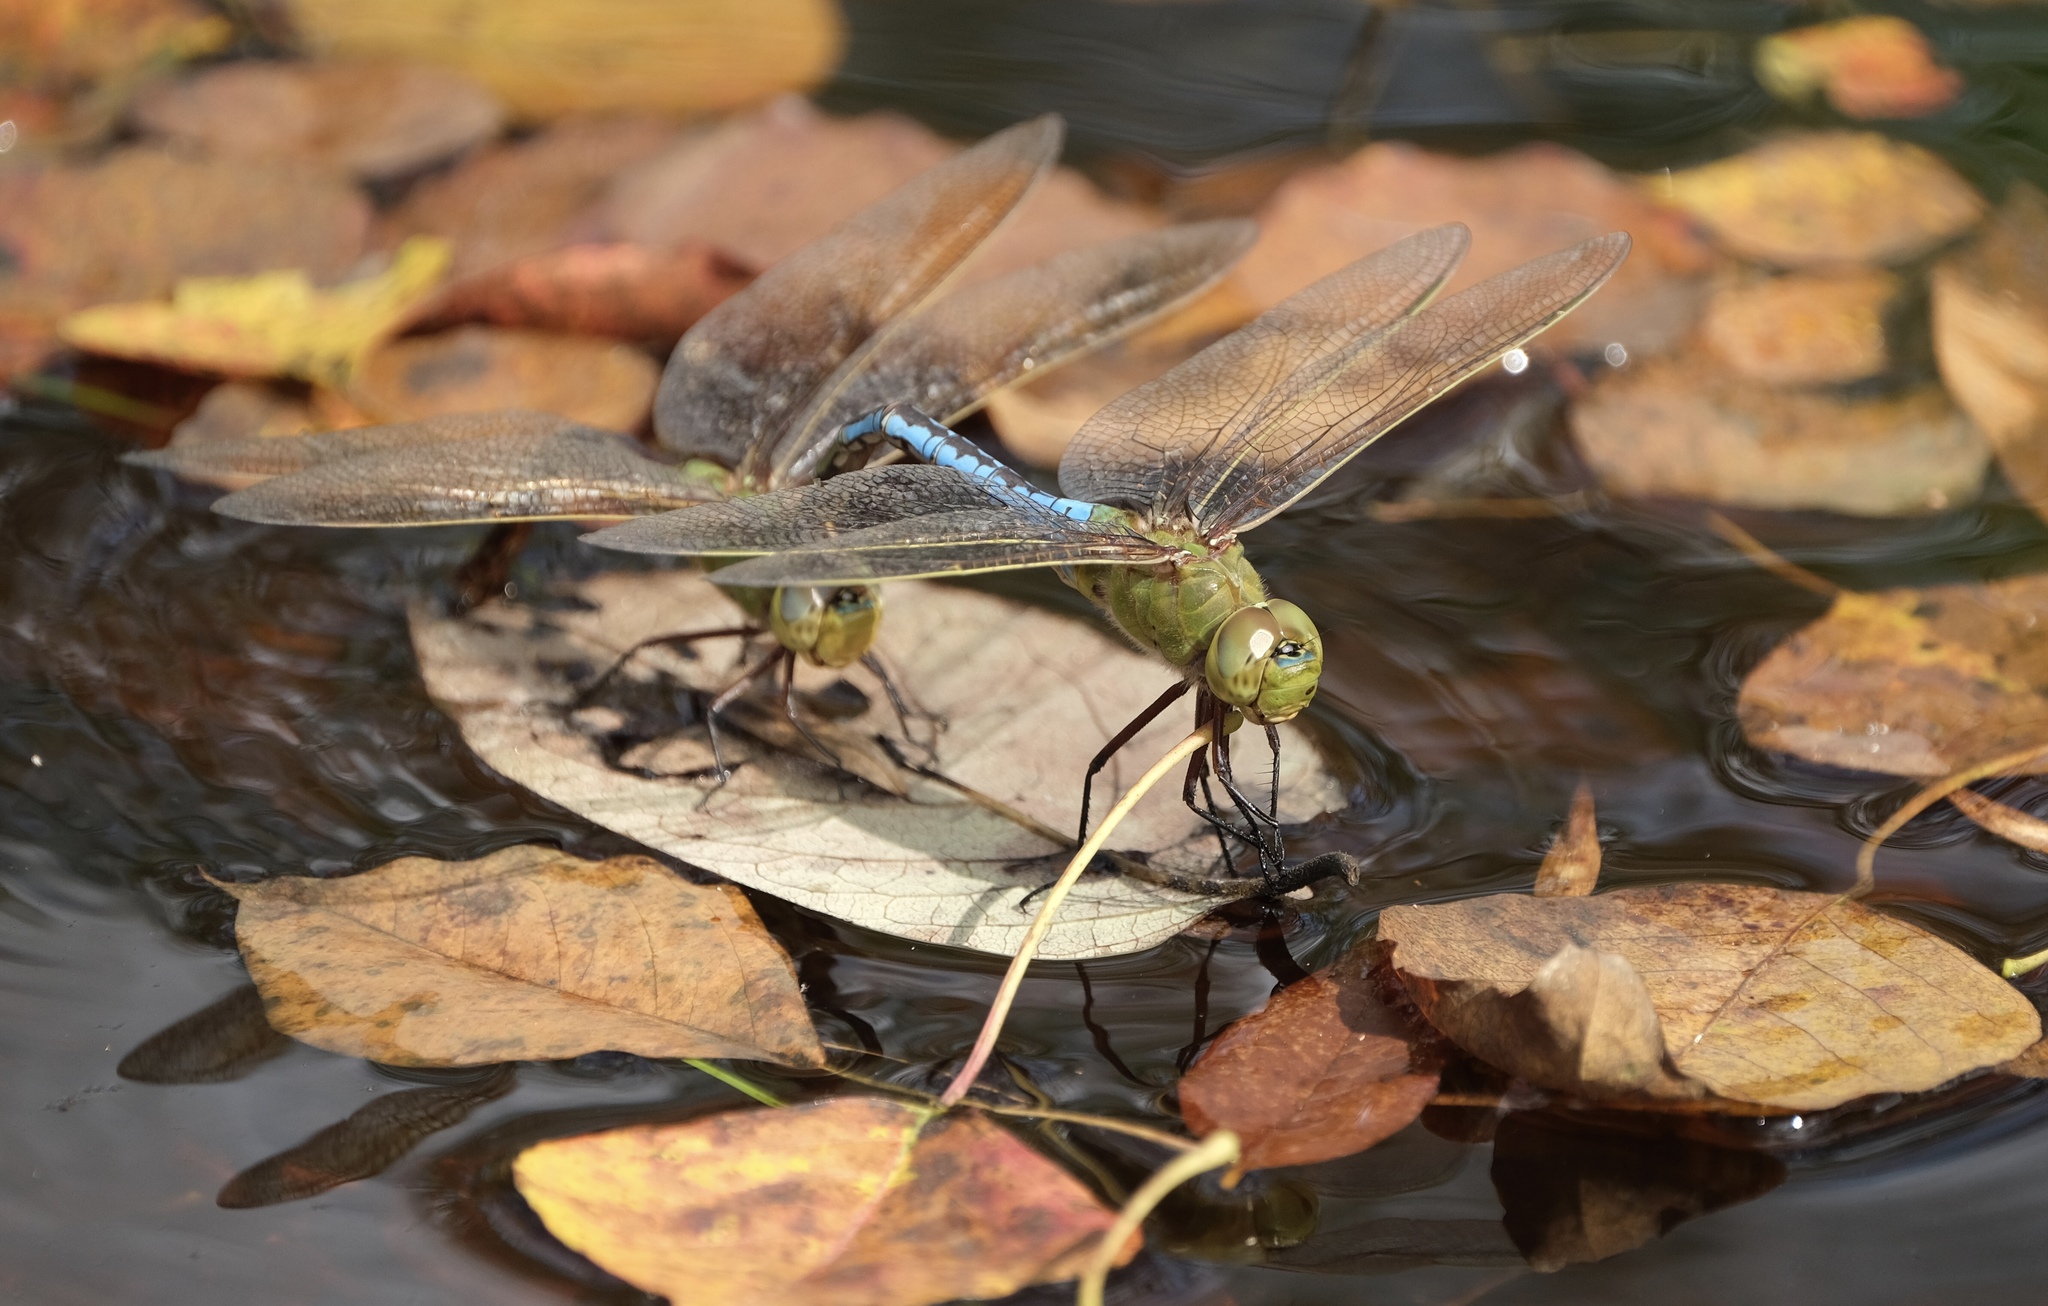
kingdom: Animalia
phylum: Arthropoda
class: Insecta
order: Odonata
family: Aeshnidae
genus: Anax
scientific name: Anax junius
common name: Common green darner
